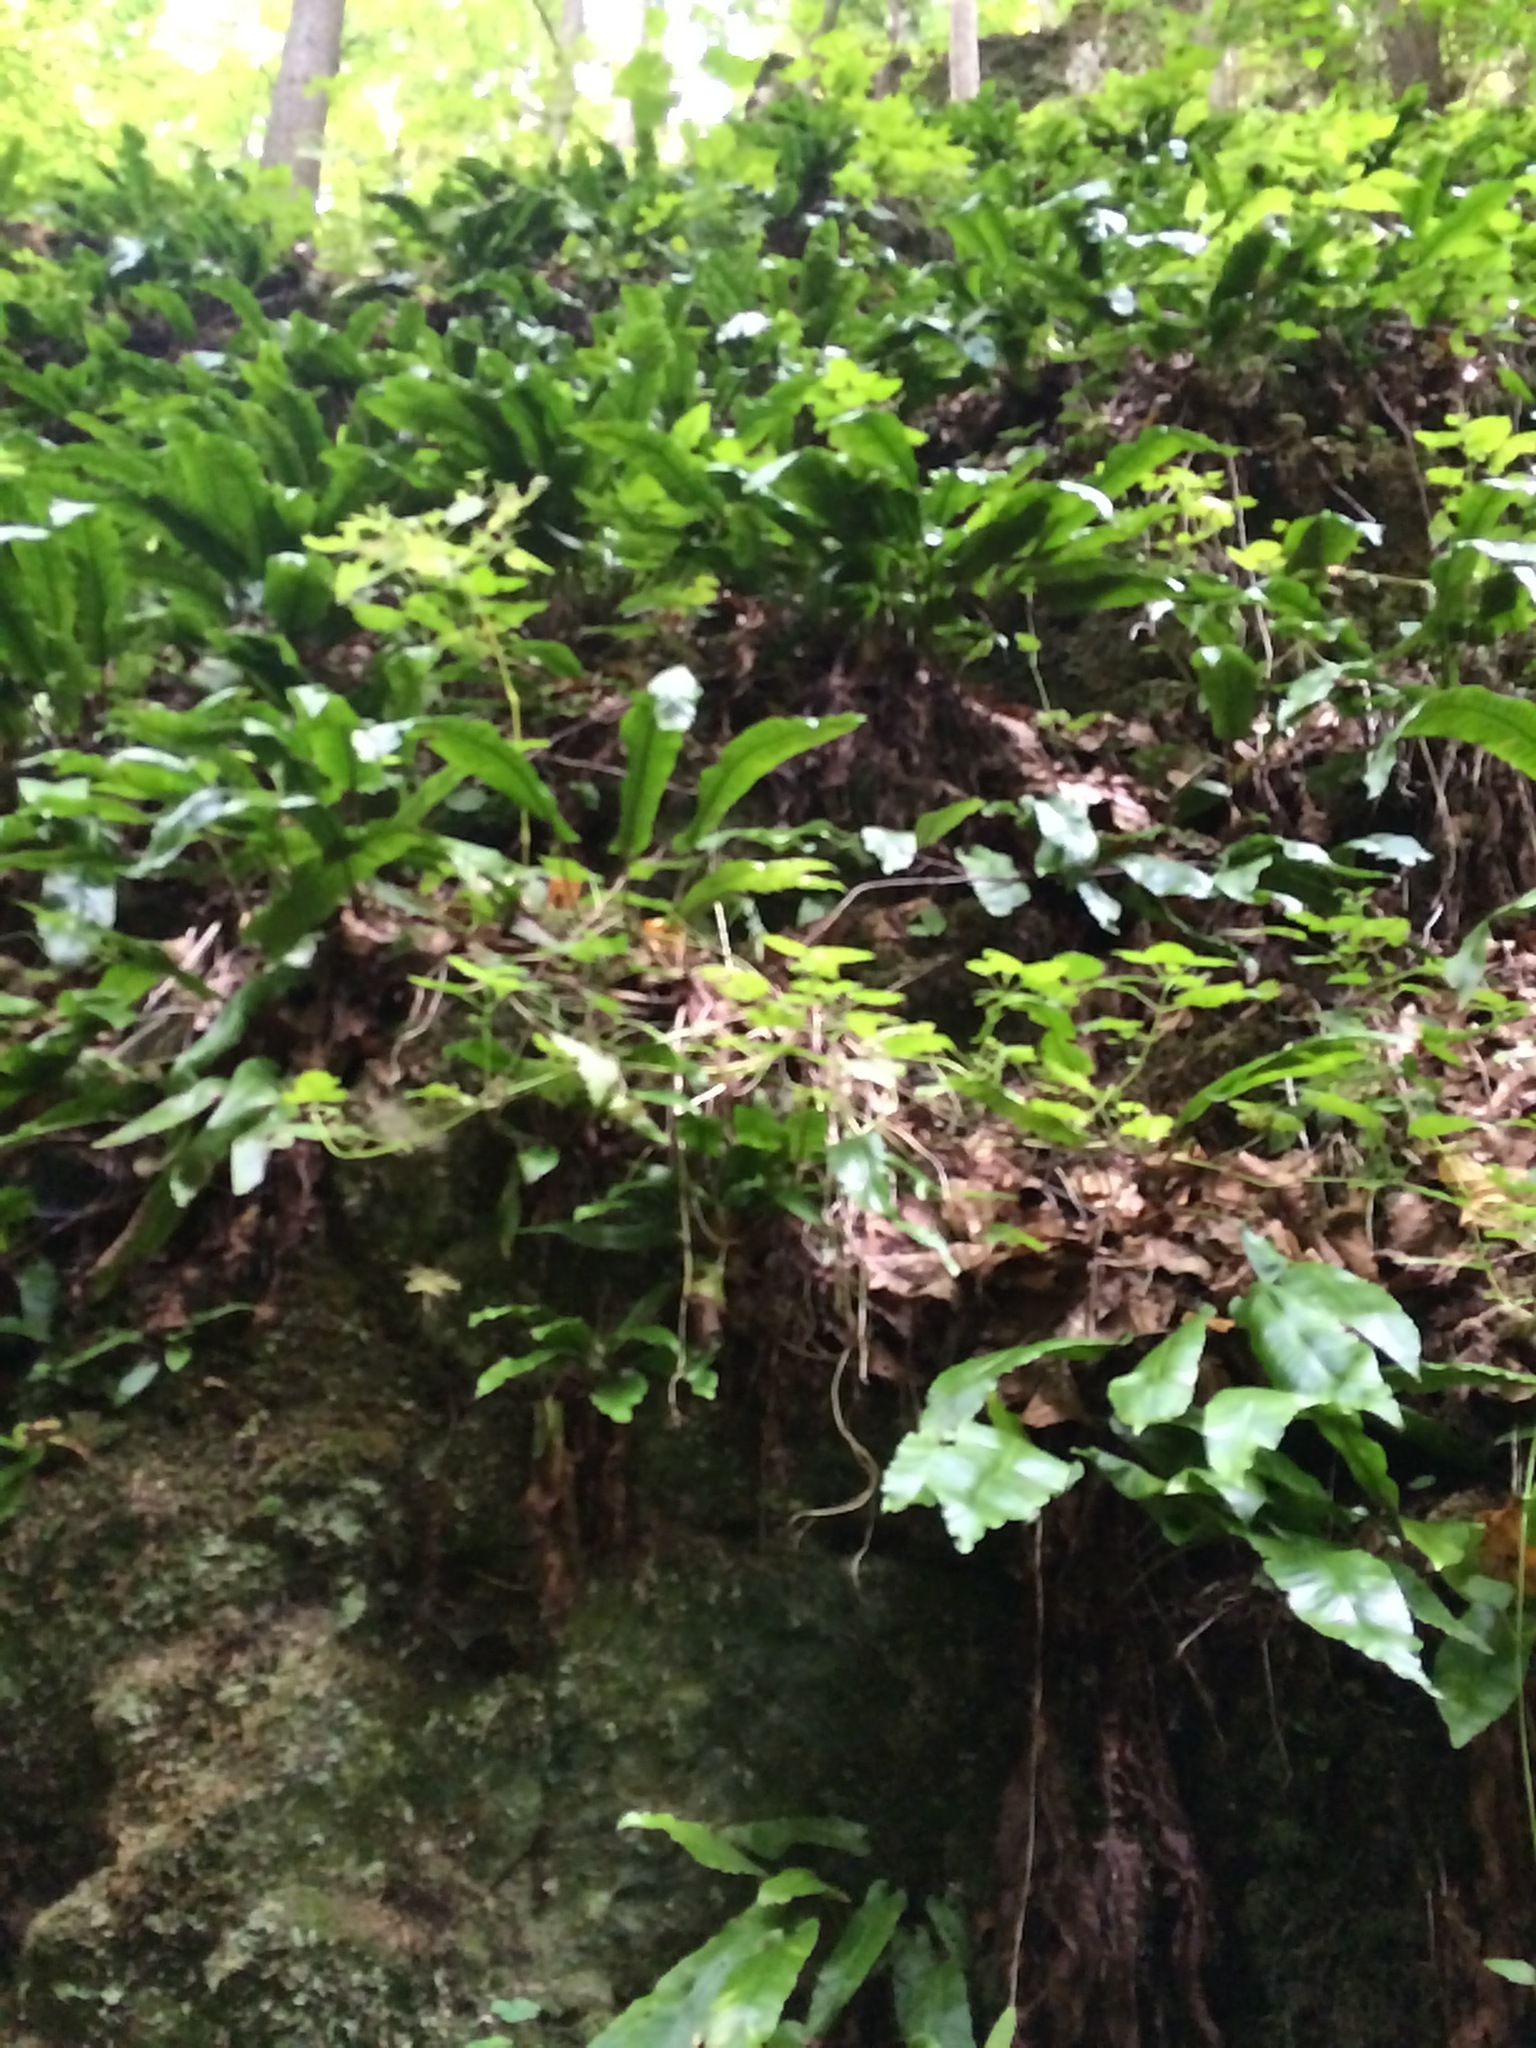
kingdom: Plantae
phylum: Tracheophyta
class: Polypodiopsida
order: Polypodiales
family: Aspleniaceae
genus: Asplenium
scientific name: Asplenium scolopendrium
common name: Hart's-tongue fern
